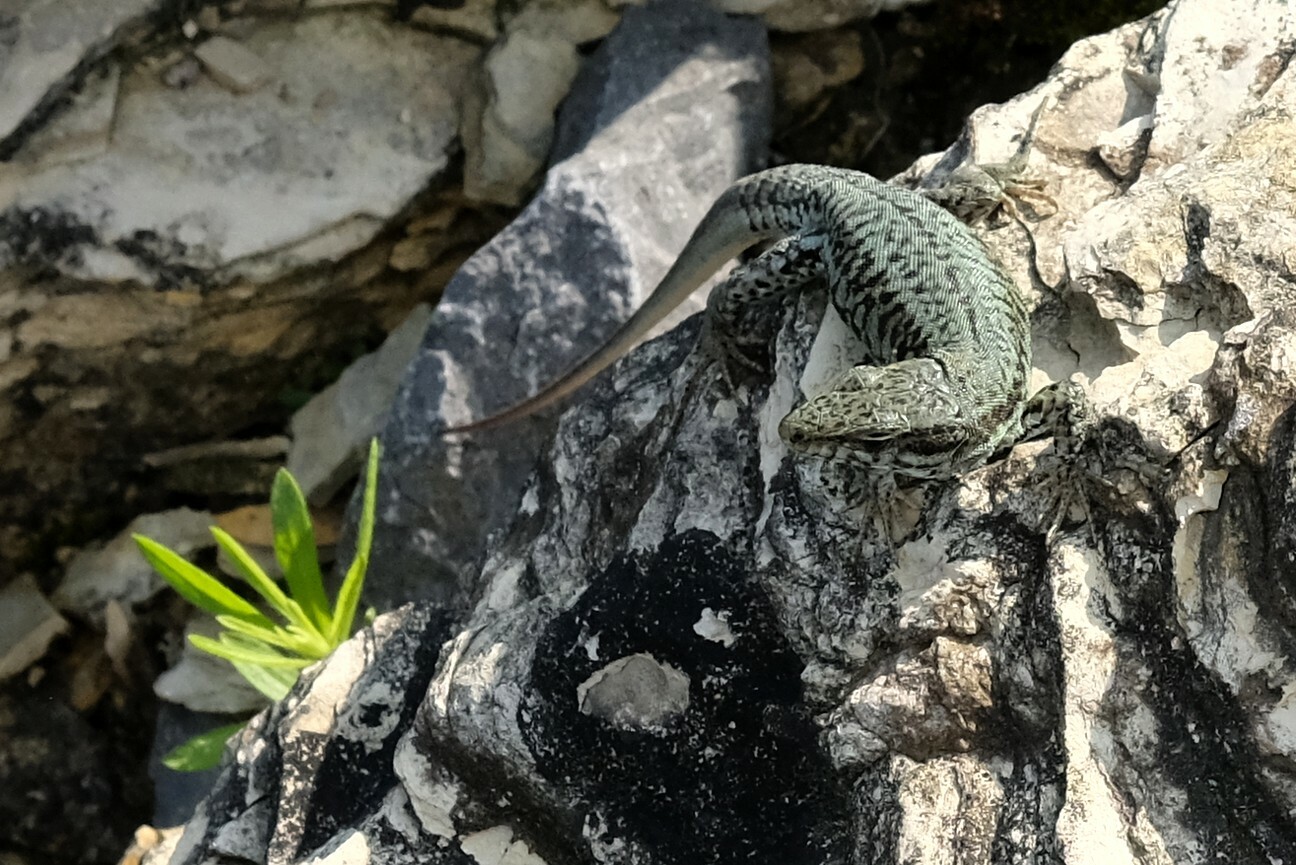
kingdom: Animalia
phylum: Chordata
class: Squamata
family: Lacertidae
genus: Podarcis
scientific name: Podarcis muralis
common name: Common wall lizard
